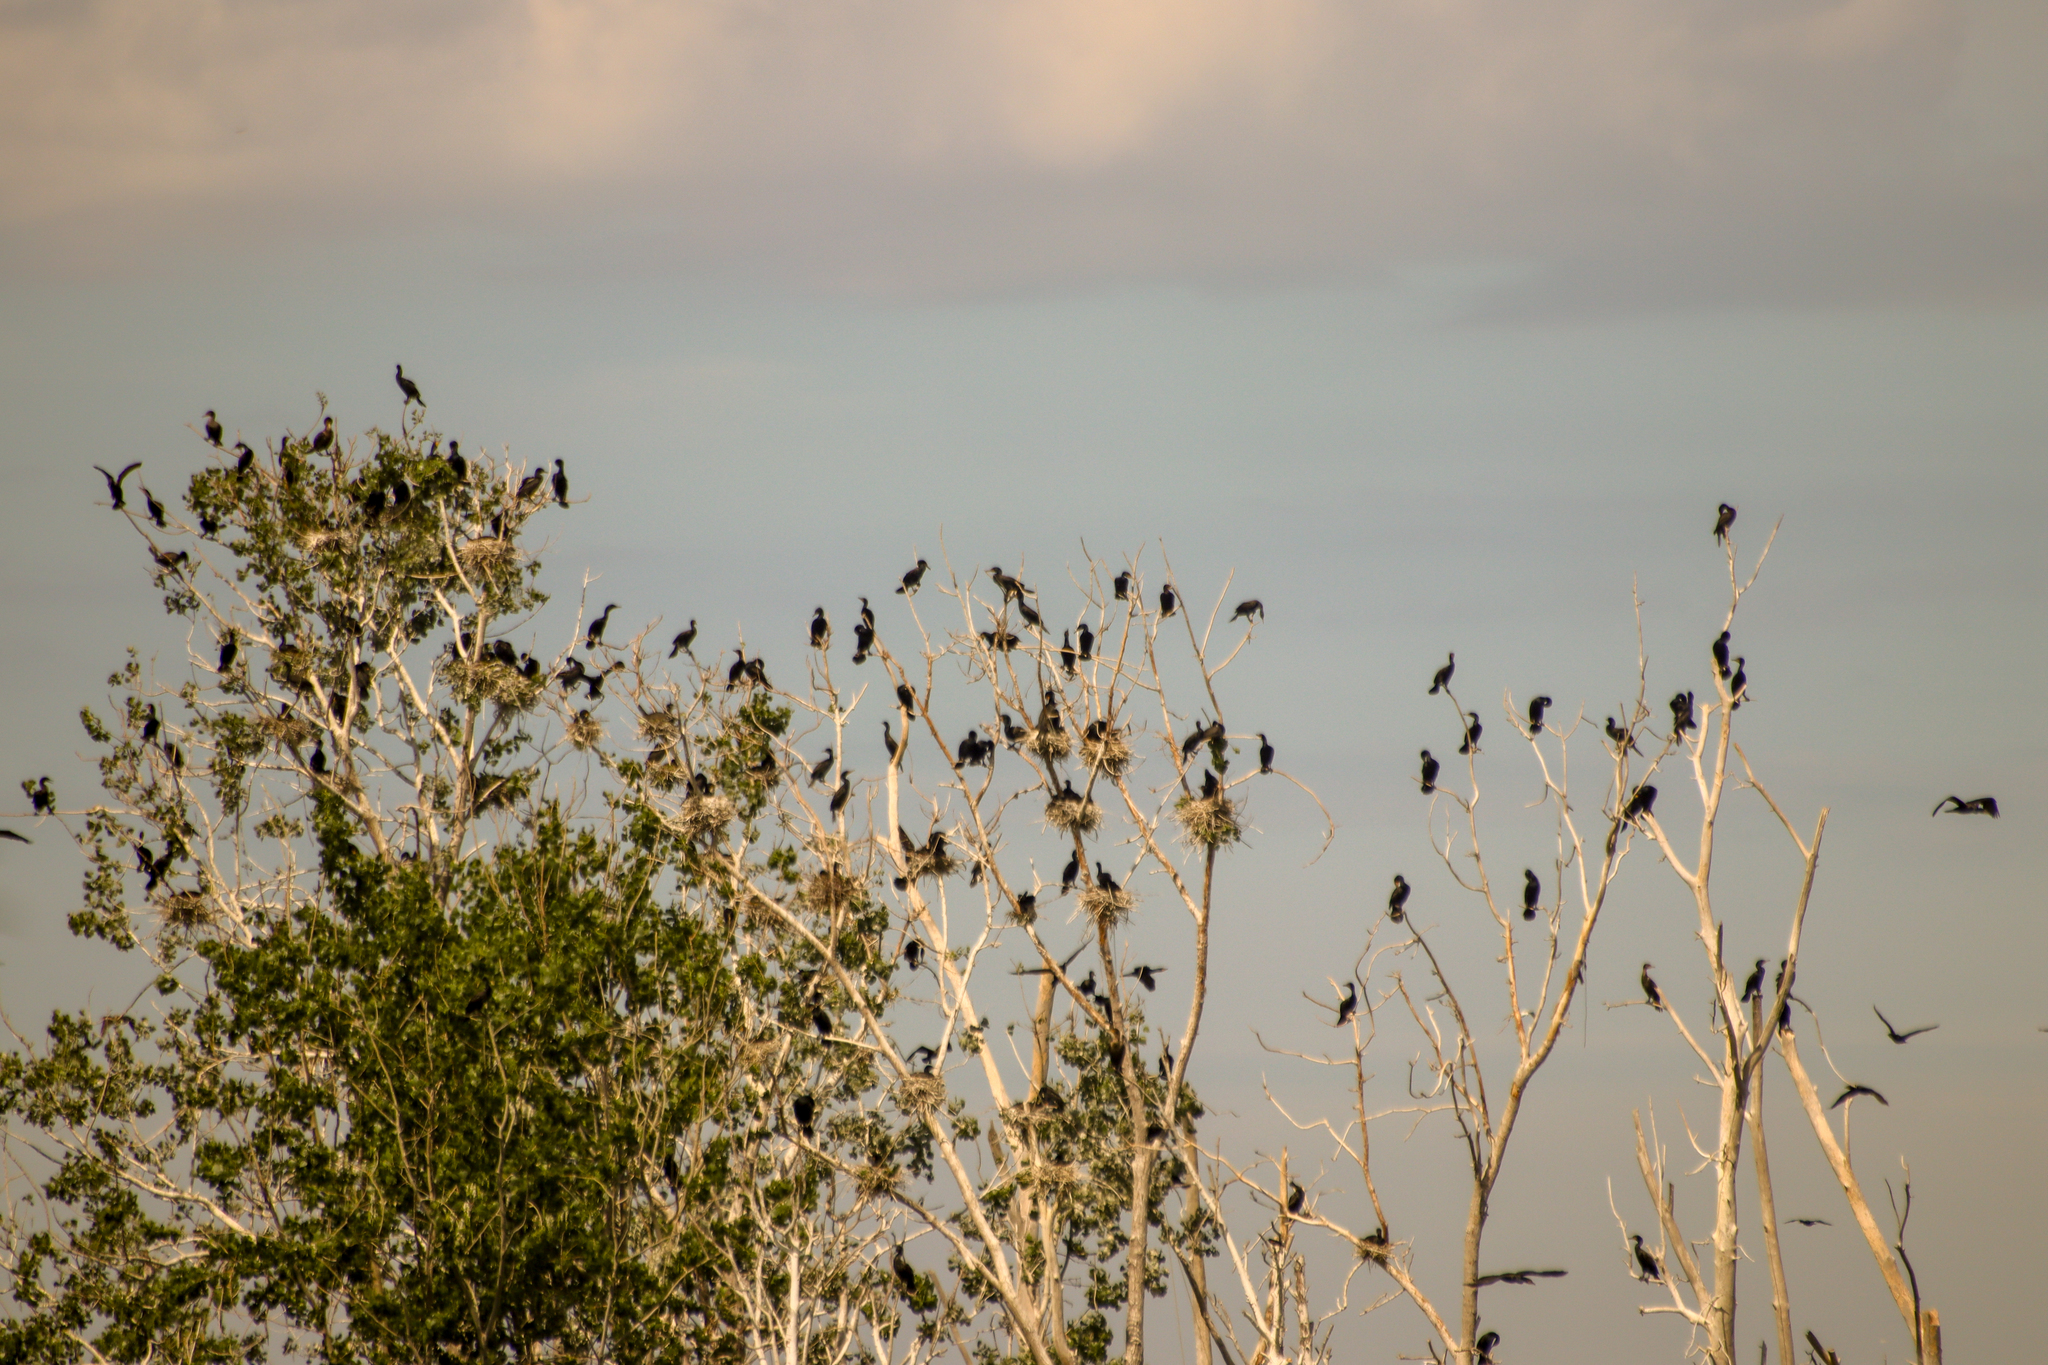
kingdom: Animalia
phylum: Chordata
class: Aves
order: Suliformes
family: Phalacrocoracidae
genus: Phalacrocorax
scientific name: Phalacrocorax auritus
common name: Double-crested cormorant
